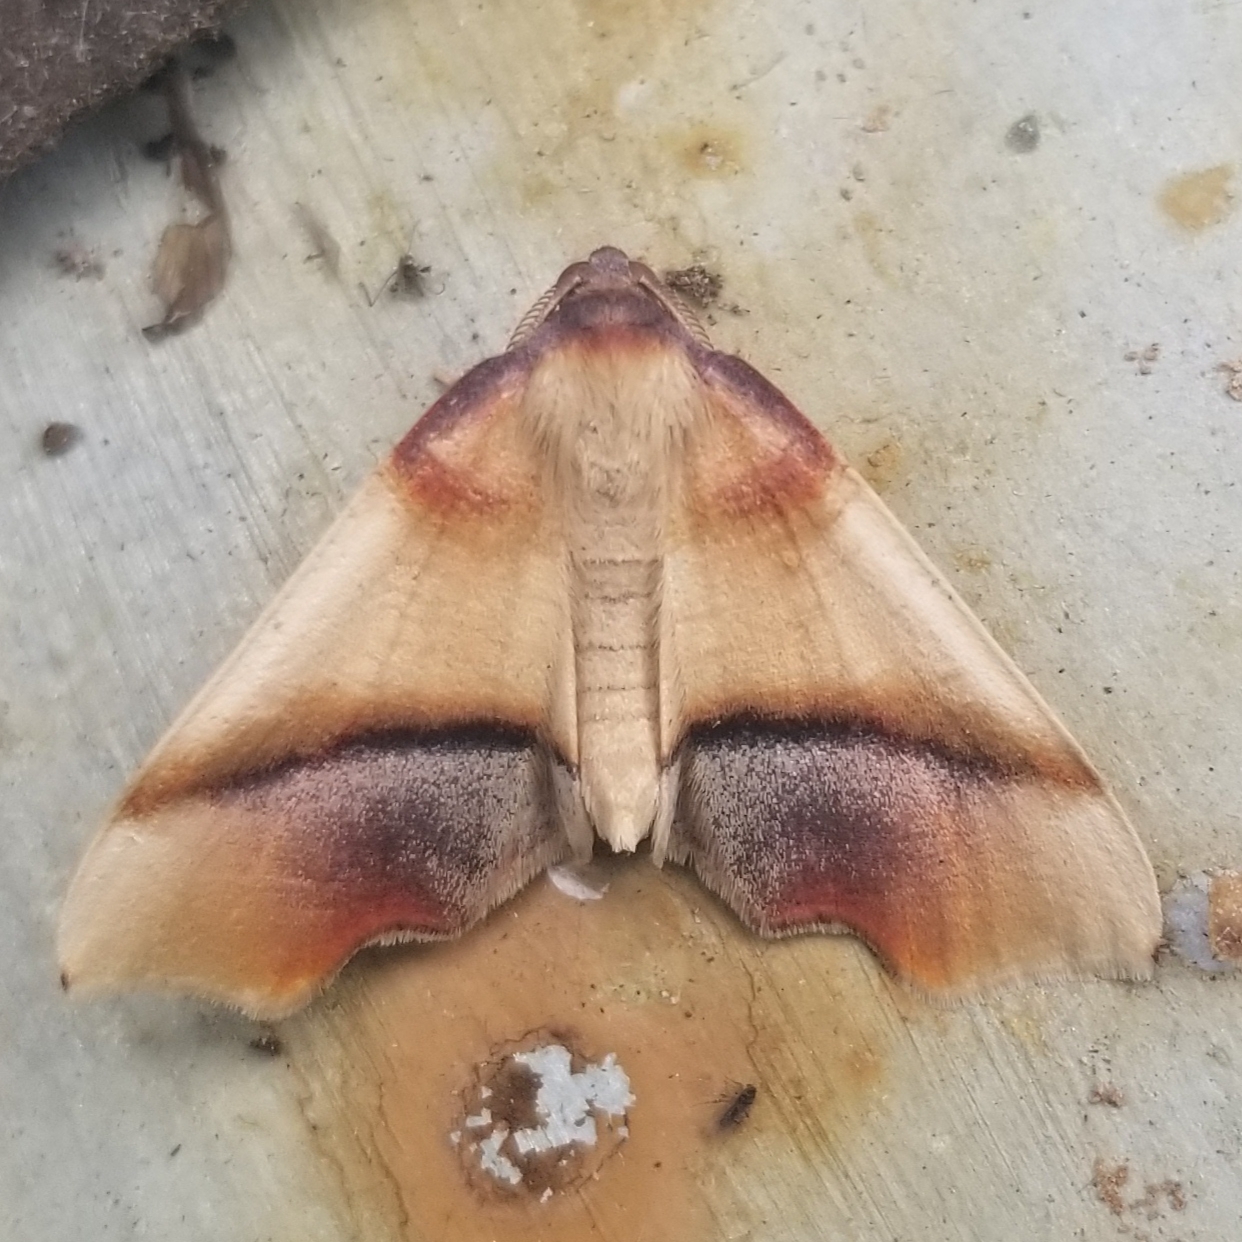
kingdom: Animalia
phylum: Arthropoda
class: Insecta
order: Lepidoptera
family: Geometridae
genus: Plagodis
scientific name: Plagodis phlogosaria
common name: Straight-lined plagodis
